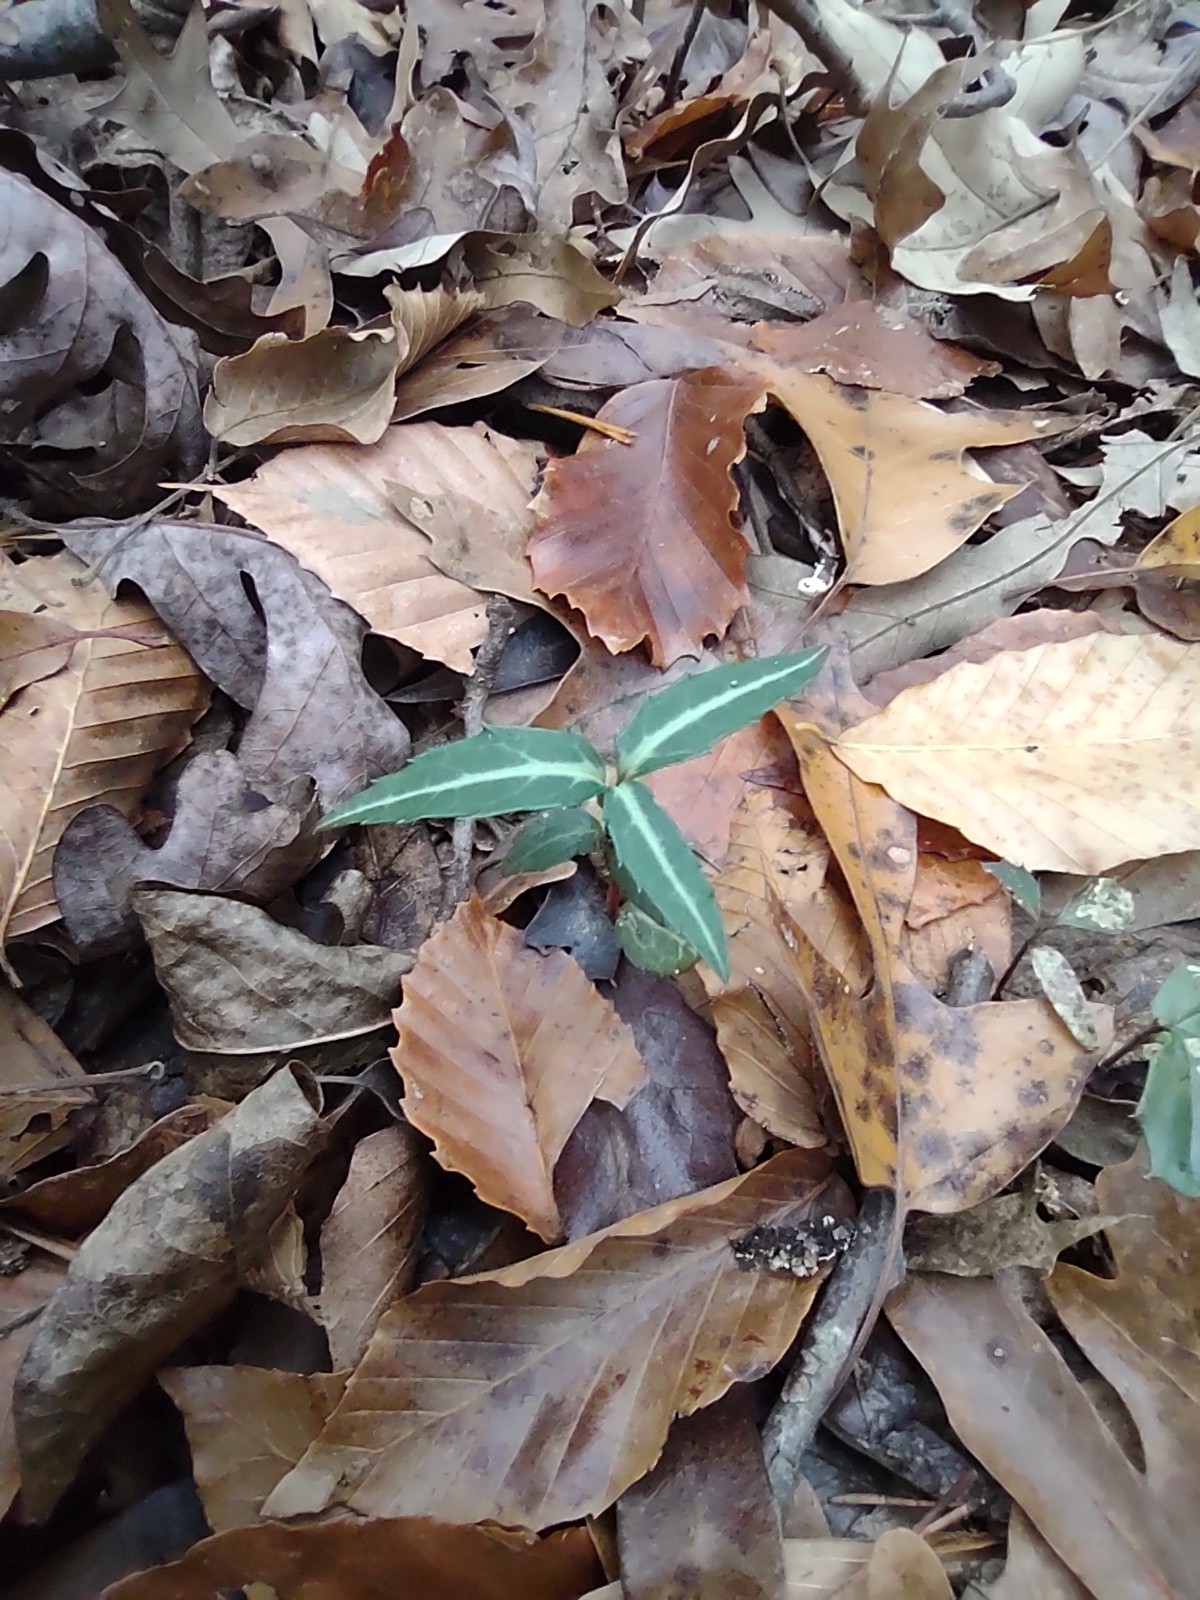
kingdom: Plantae
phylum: Tracheophyta
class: Magnoliopsida
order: Ericales
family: Ericaceae
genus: Chimaphila
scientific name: Chimaphila maculata
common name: Spotted pipsissewa
